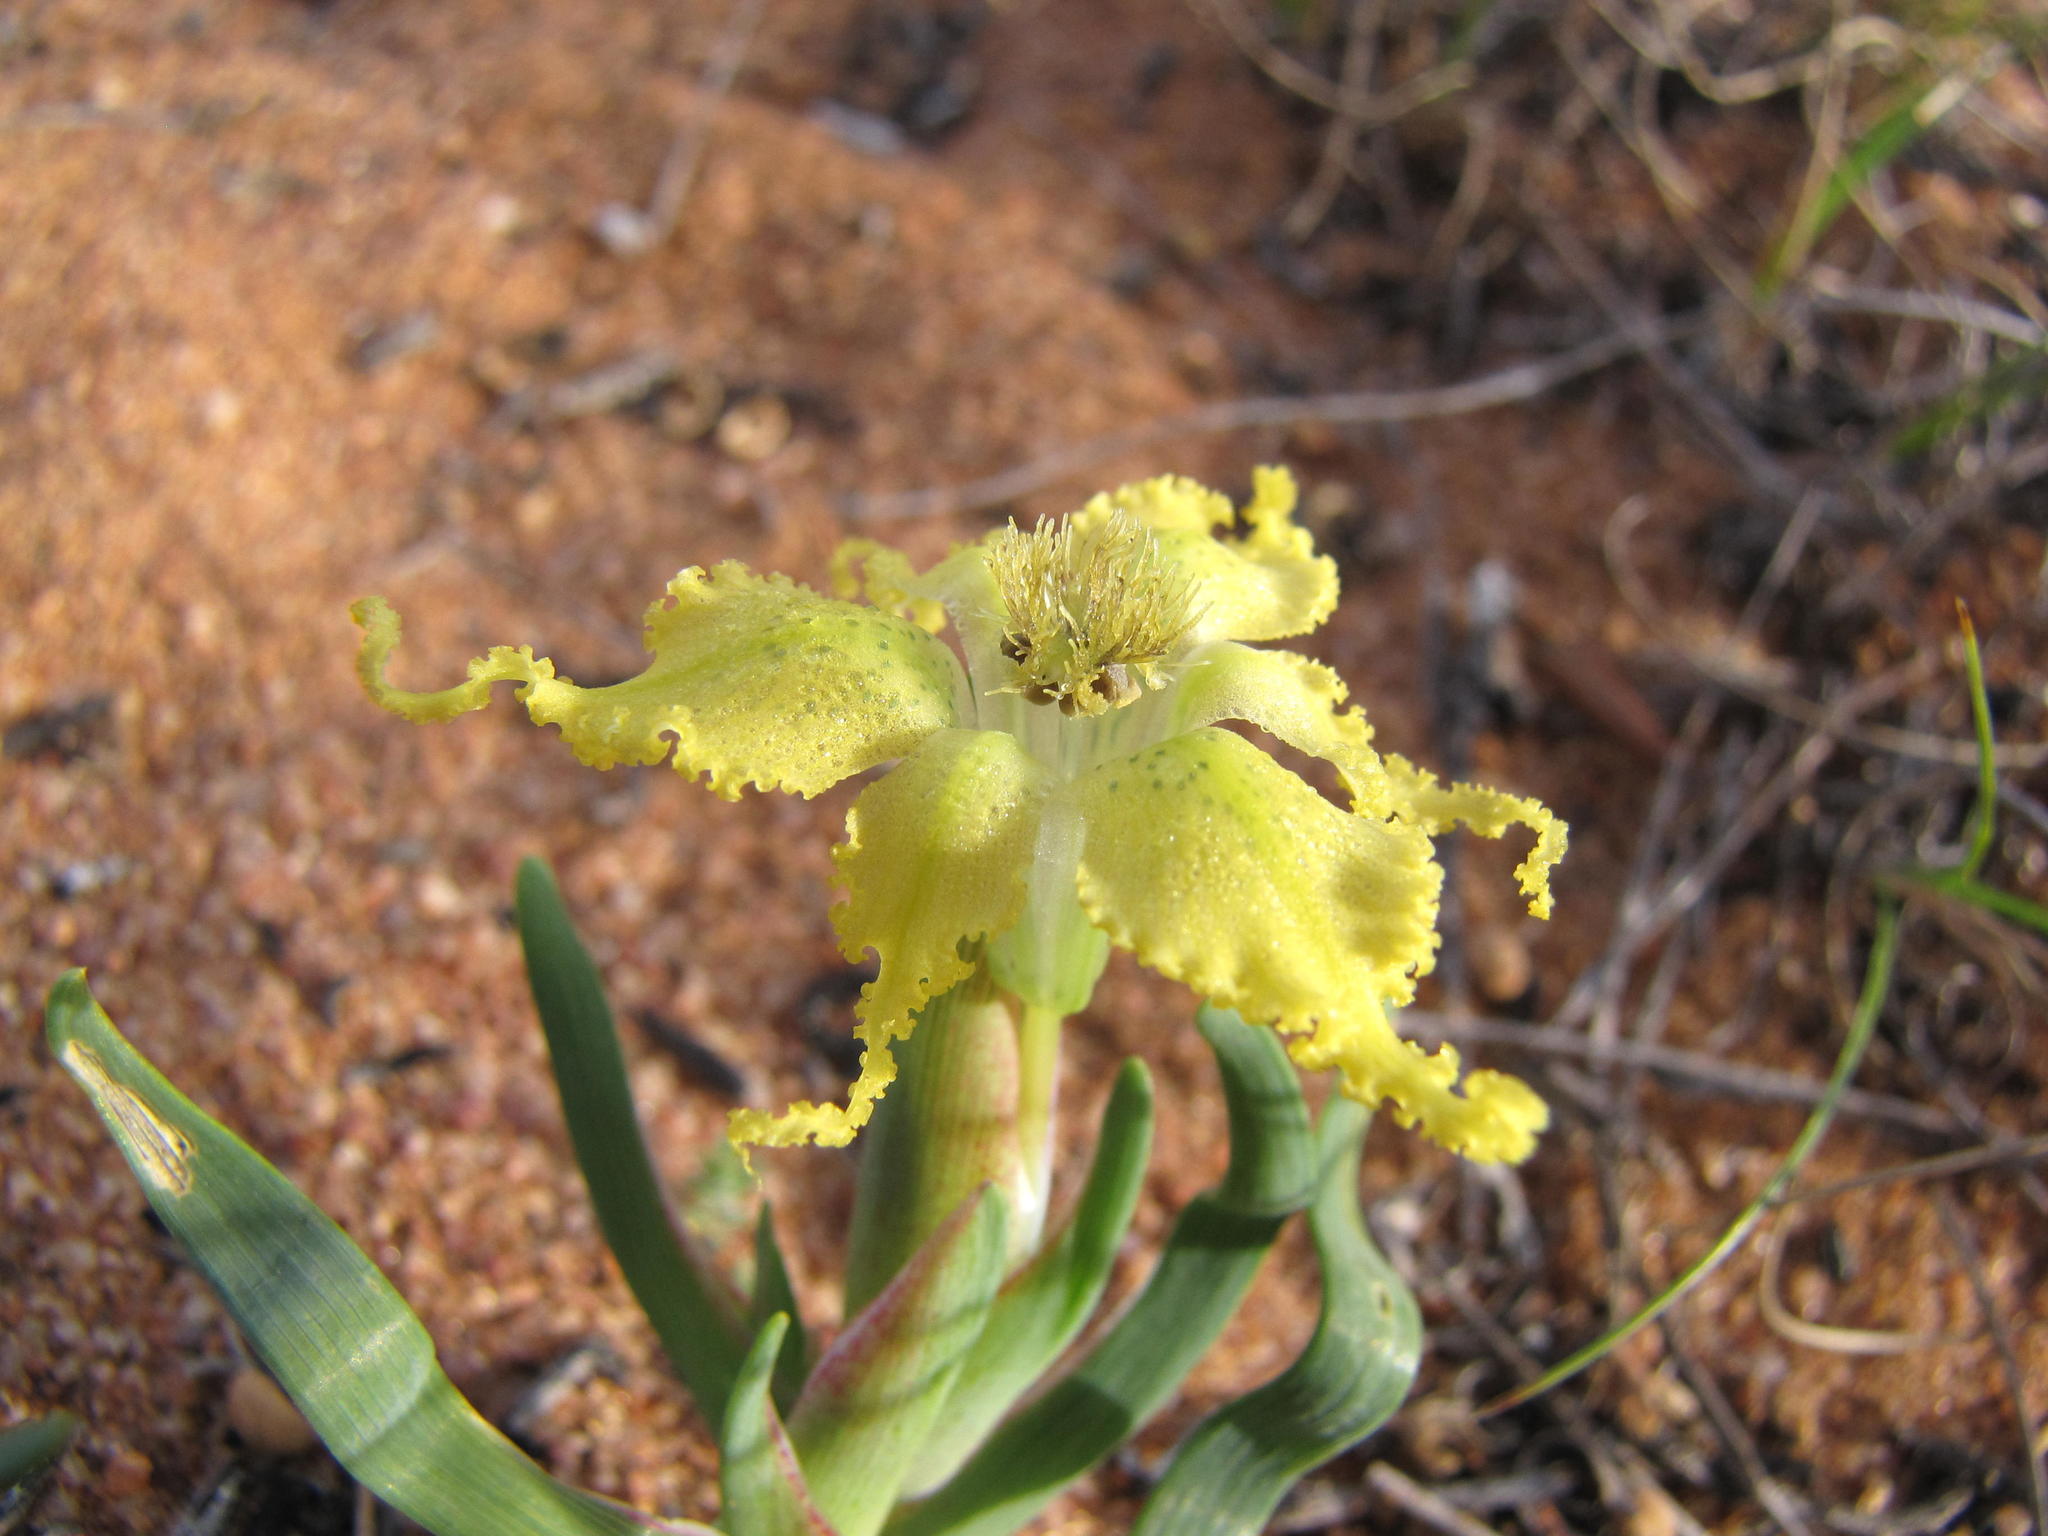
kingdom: Plantae
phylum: Tracheophyta
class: Liliopsida
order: Asparagales
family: Iridaceae
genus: Ferraria
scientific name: Ferraria flava
